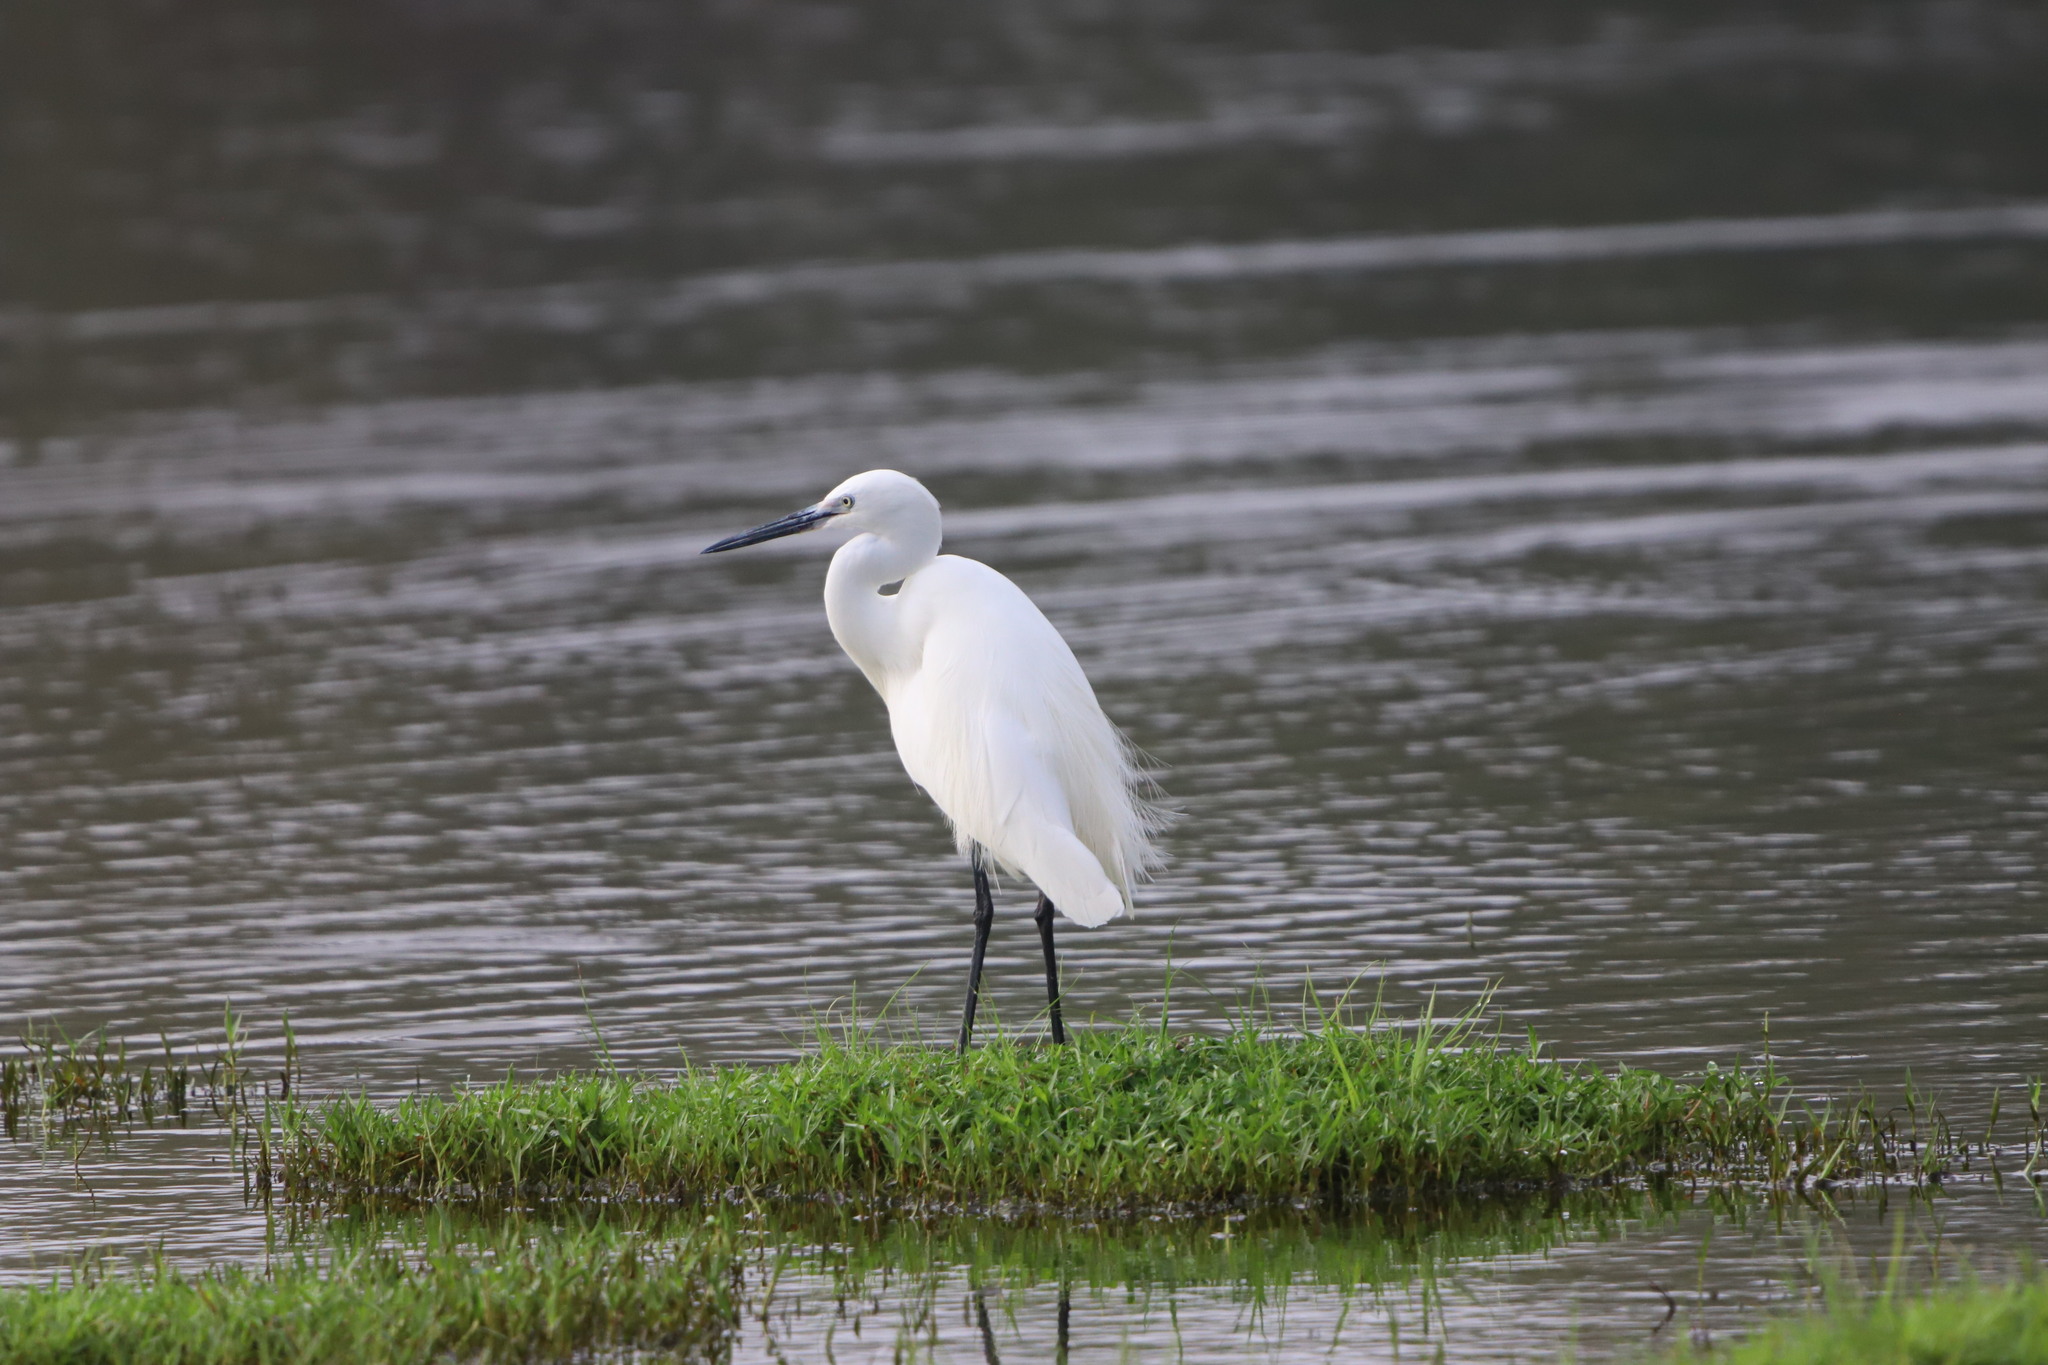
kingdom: Animalia
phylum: Chordata
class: Aves
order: Pelecaniformes
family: Ardeidae
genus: Egretta
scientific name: Egretta garzetta
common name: Little egret
